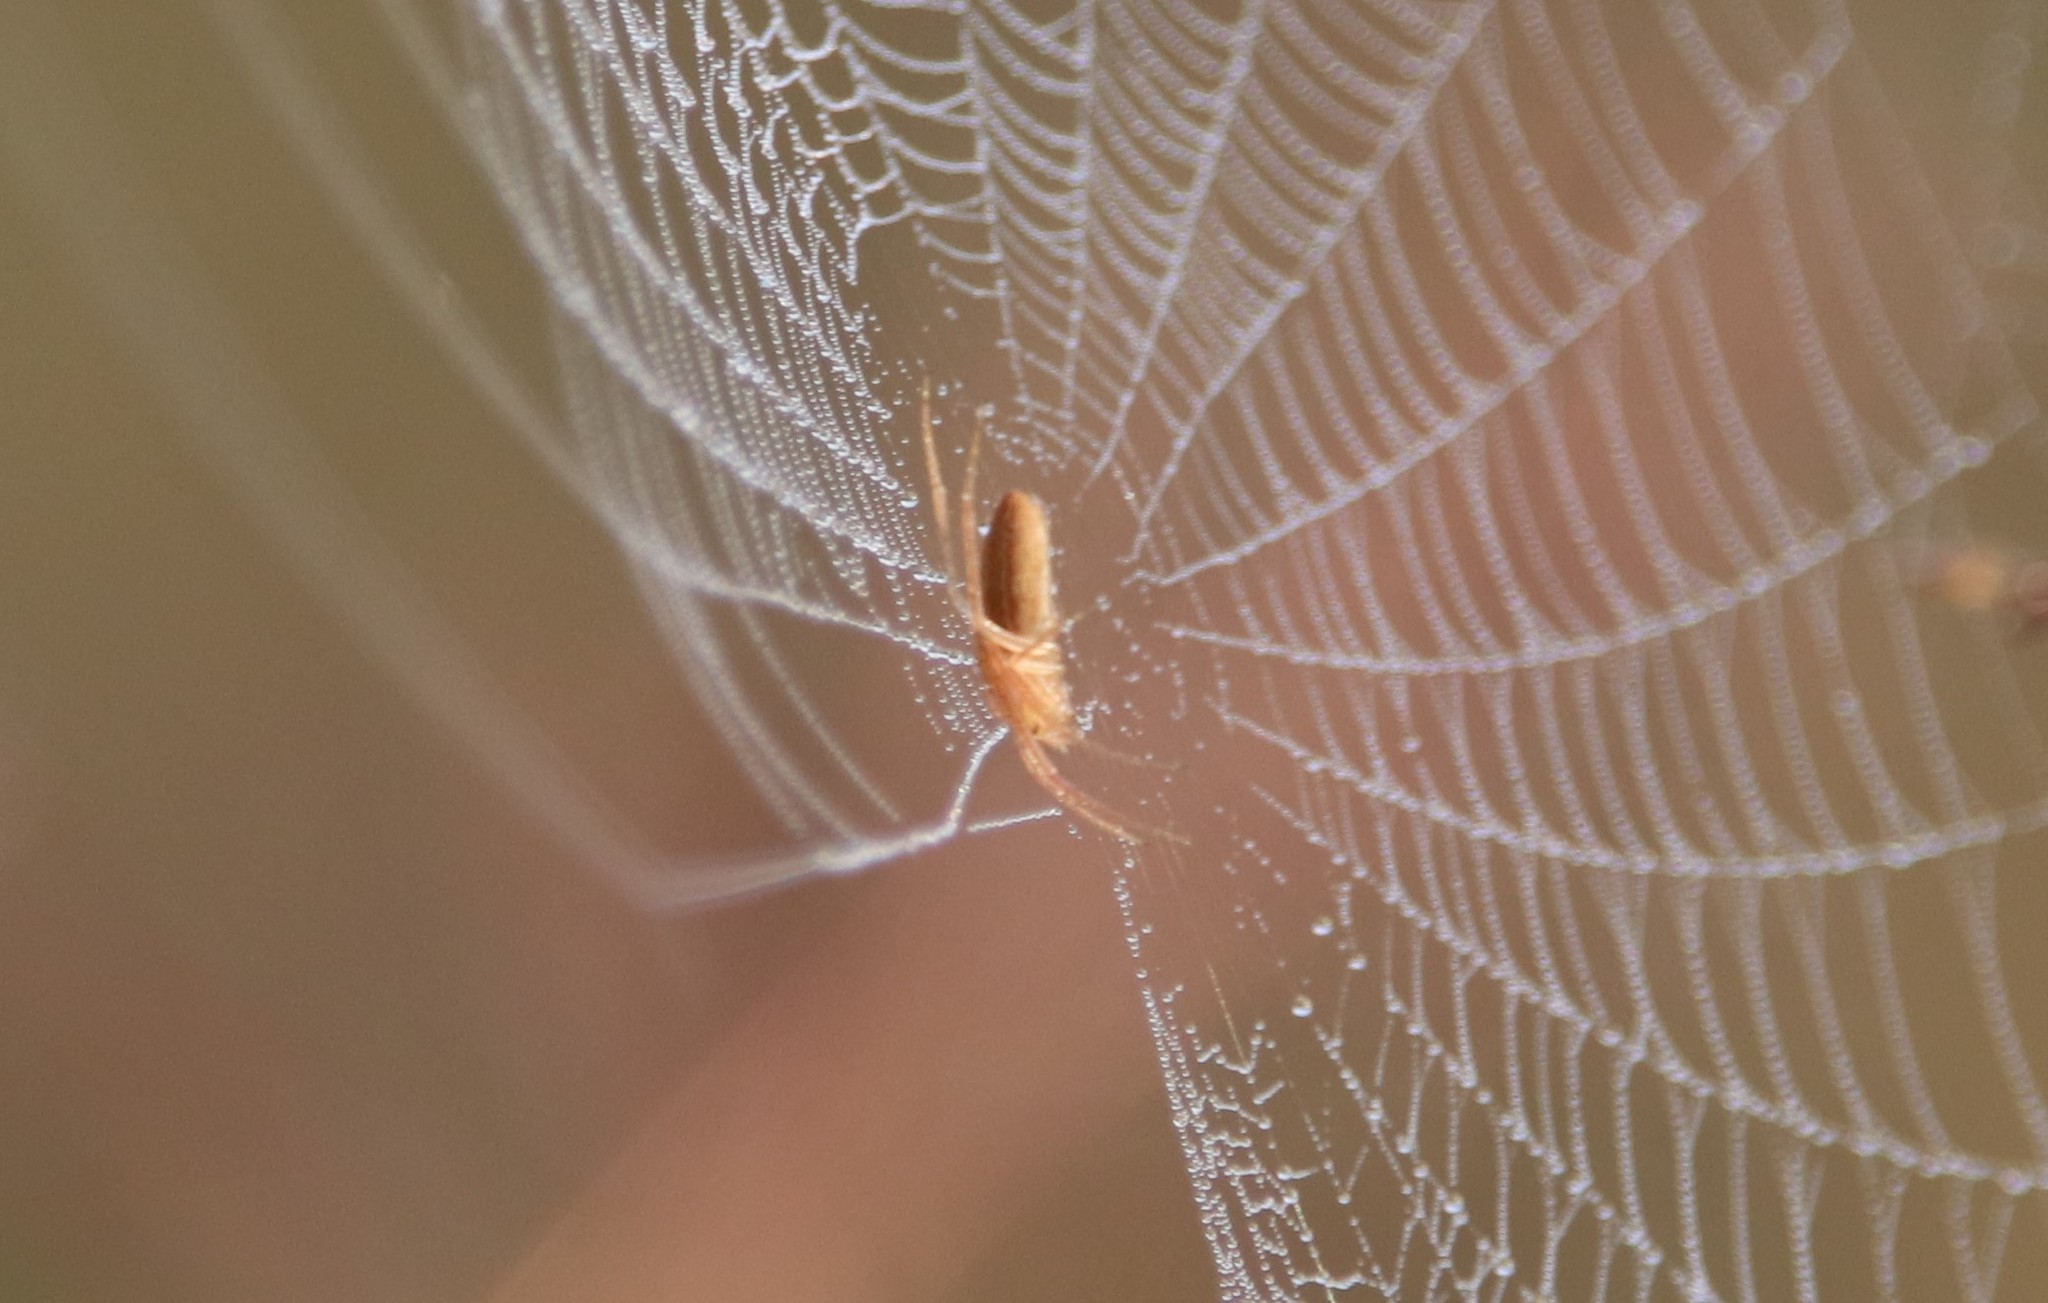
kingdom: Animalia
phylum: Arthropoda
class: Arachnida
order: Araneae
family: Araneidae
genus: Larinia
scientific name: Larinia directa
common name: Orb weavers
